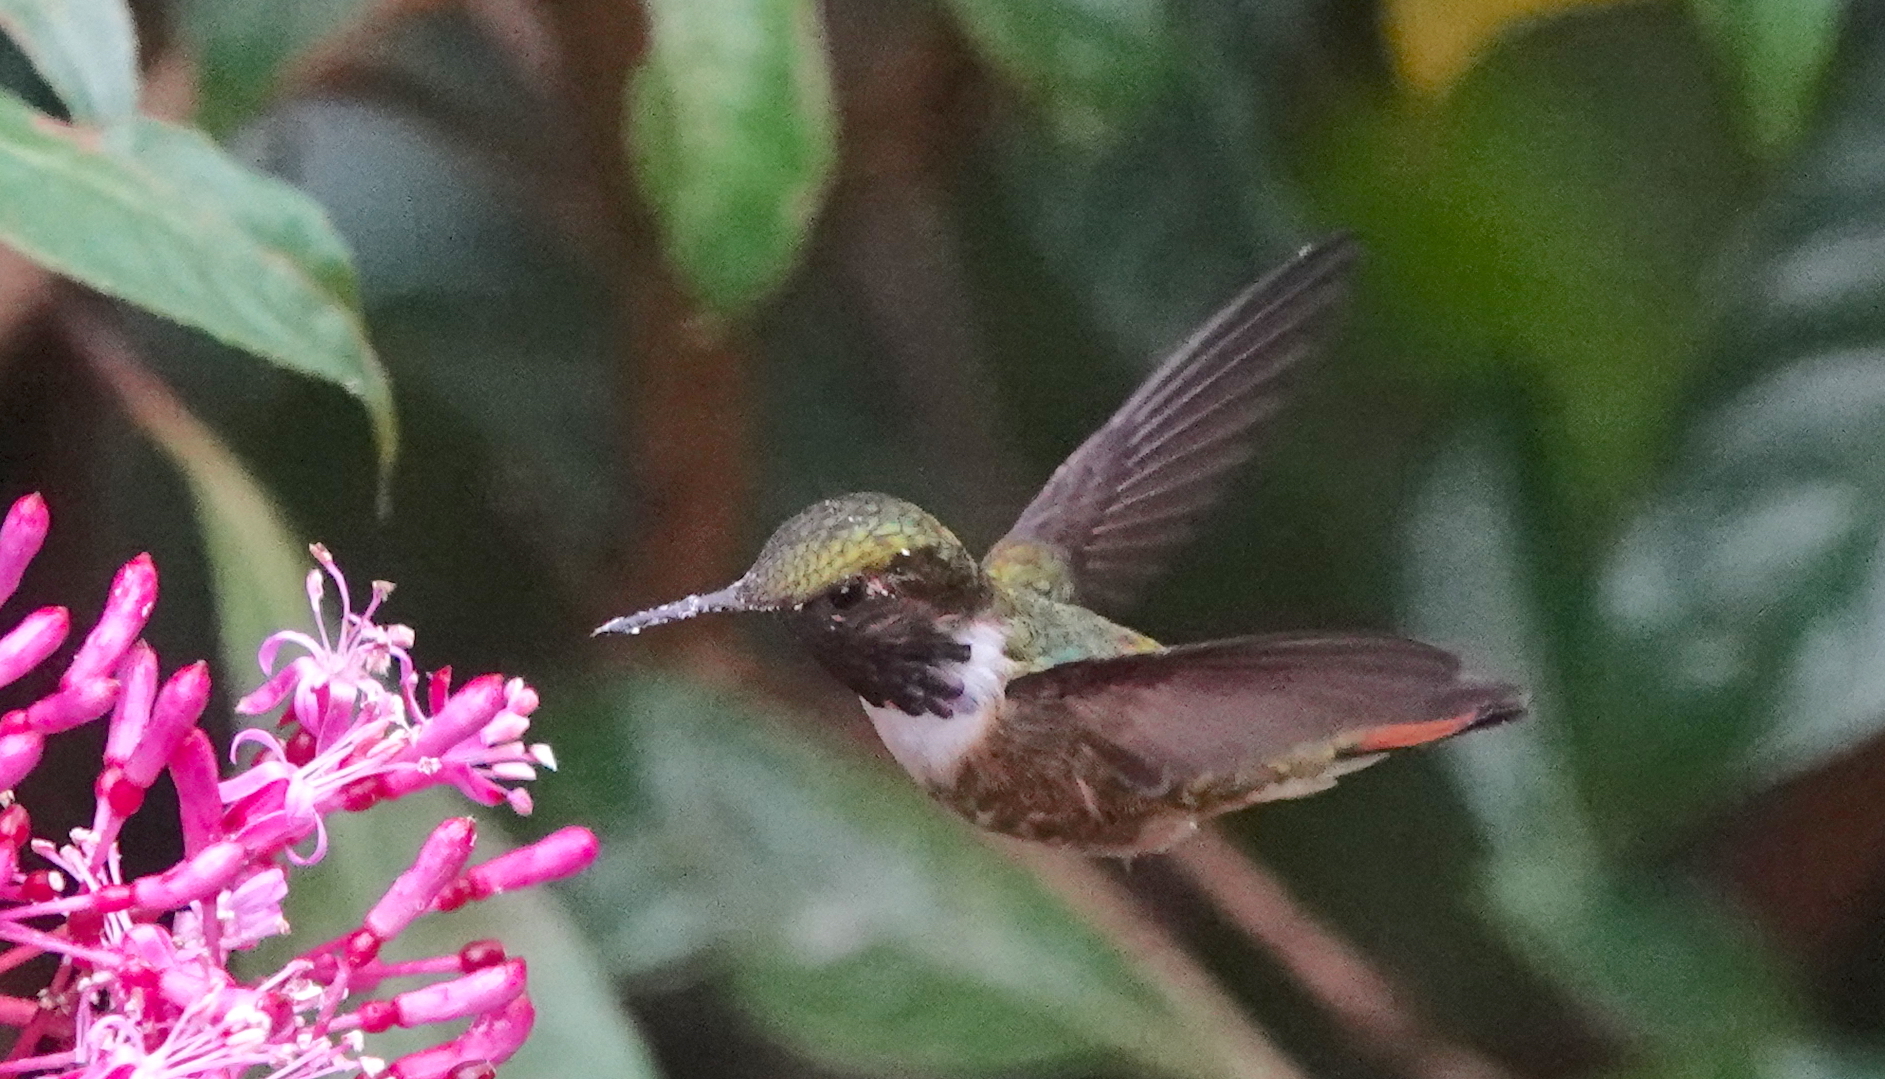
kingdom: Animalia
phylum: Chordata
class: Aves
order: Apodiformes
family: Trochilidae
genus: Selasphorus
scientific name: Selasphorus flammula
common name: Volcano hummingbird
